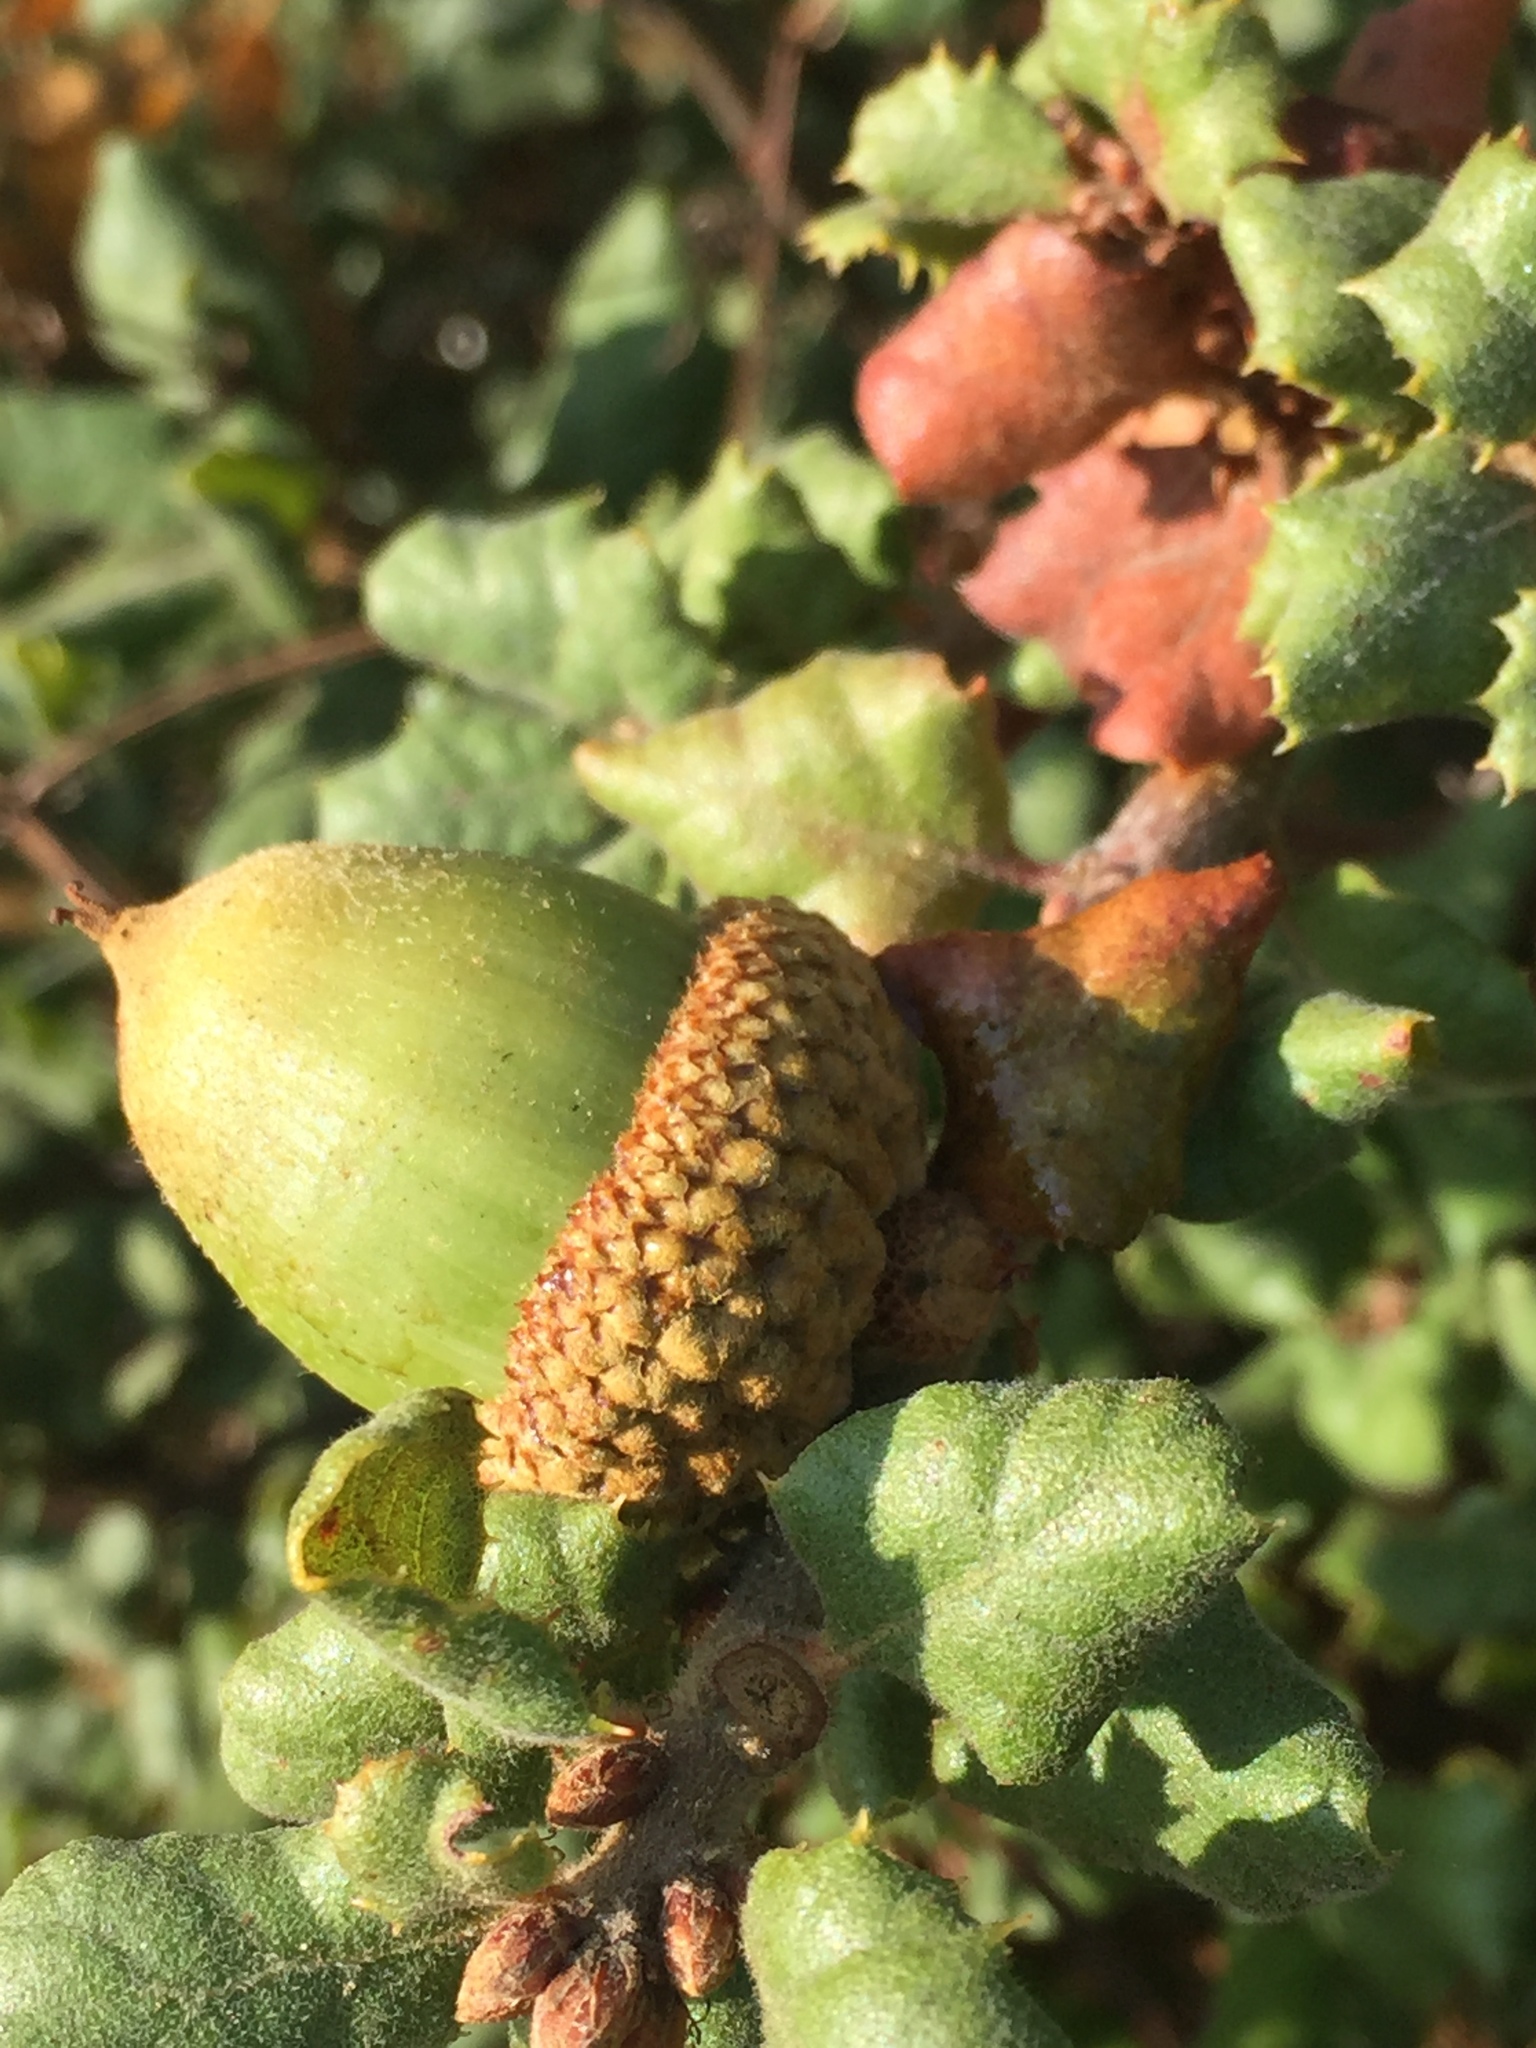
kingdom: Plantae
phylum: Tracheophyta
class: Magnoliopsida
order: Fagales
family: Fagaceae
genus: Quercus
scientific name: Quercus durata
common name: Leather oak
